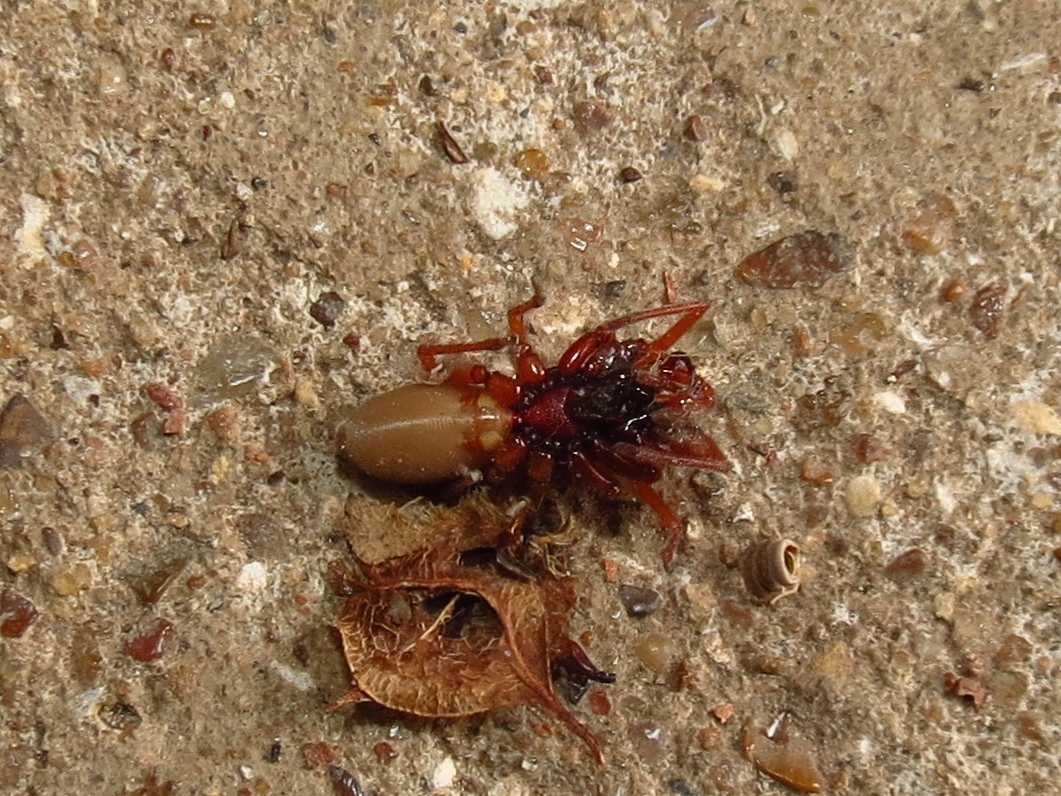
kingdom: Animalia
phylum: Arthropoda
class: Arachnida
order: Araneae
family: Dysderidae
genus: Dysdera
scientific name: Dysdera crocata
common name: Woodlouse spider
